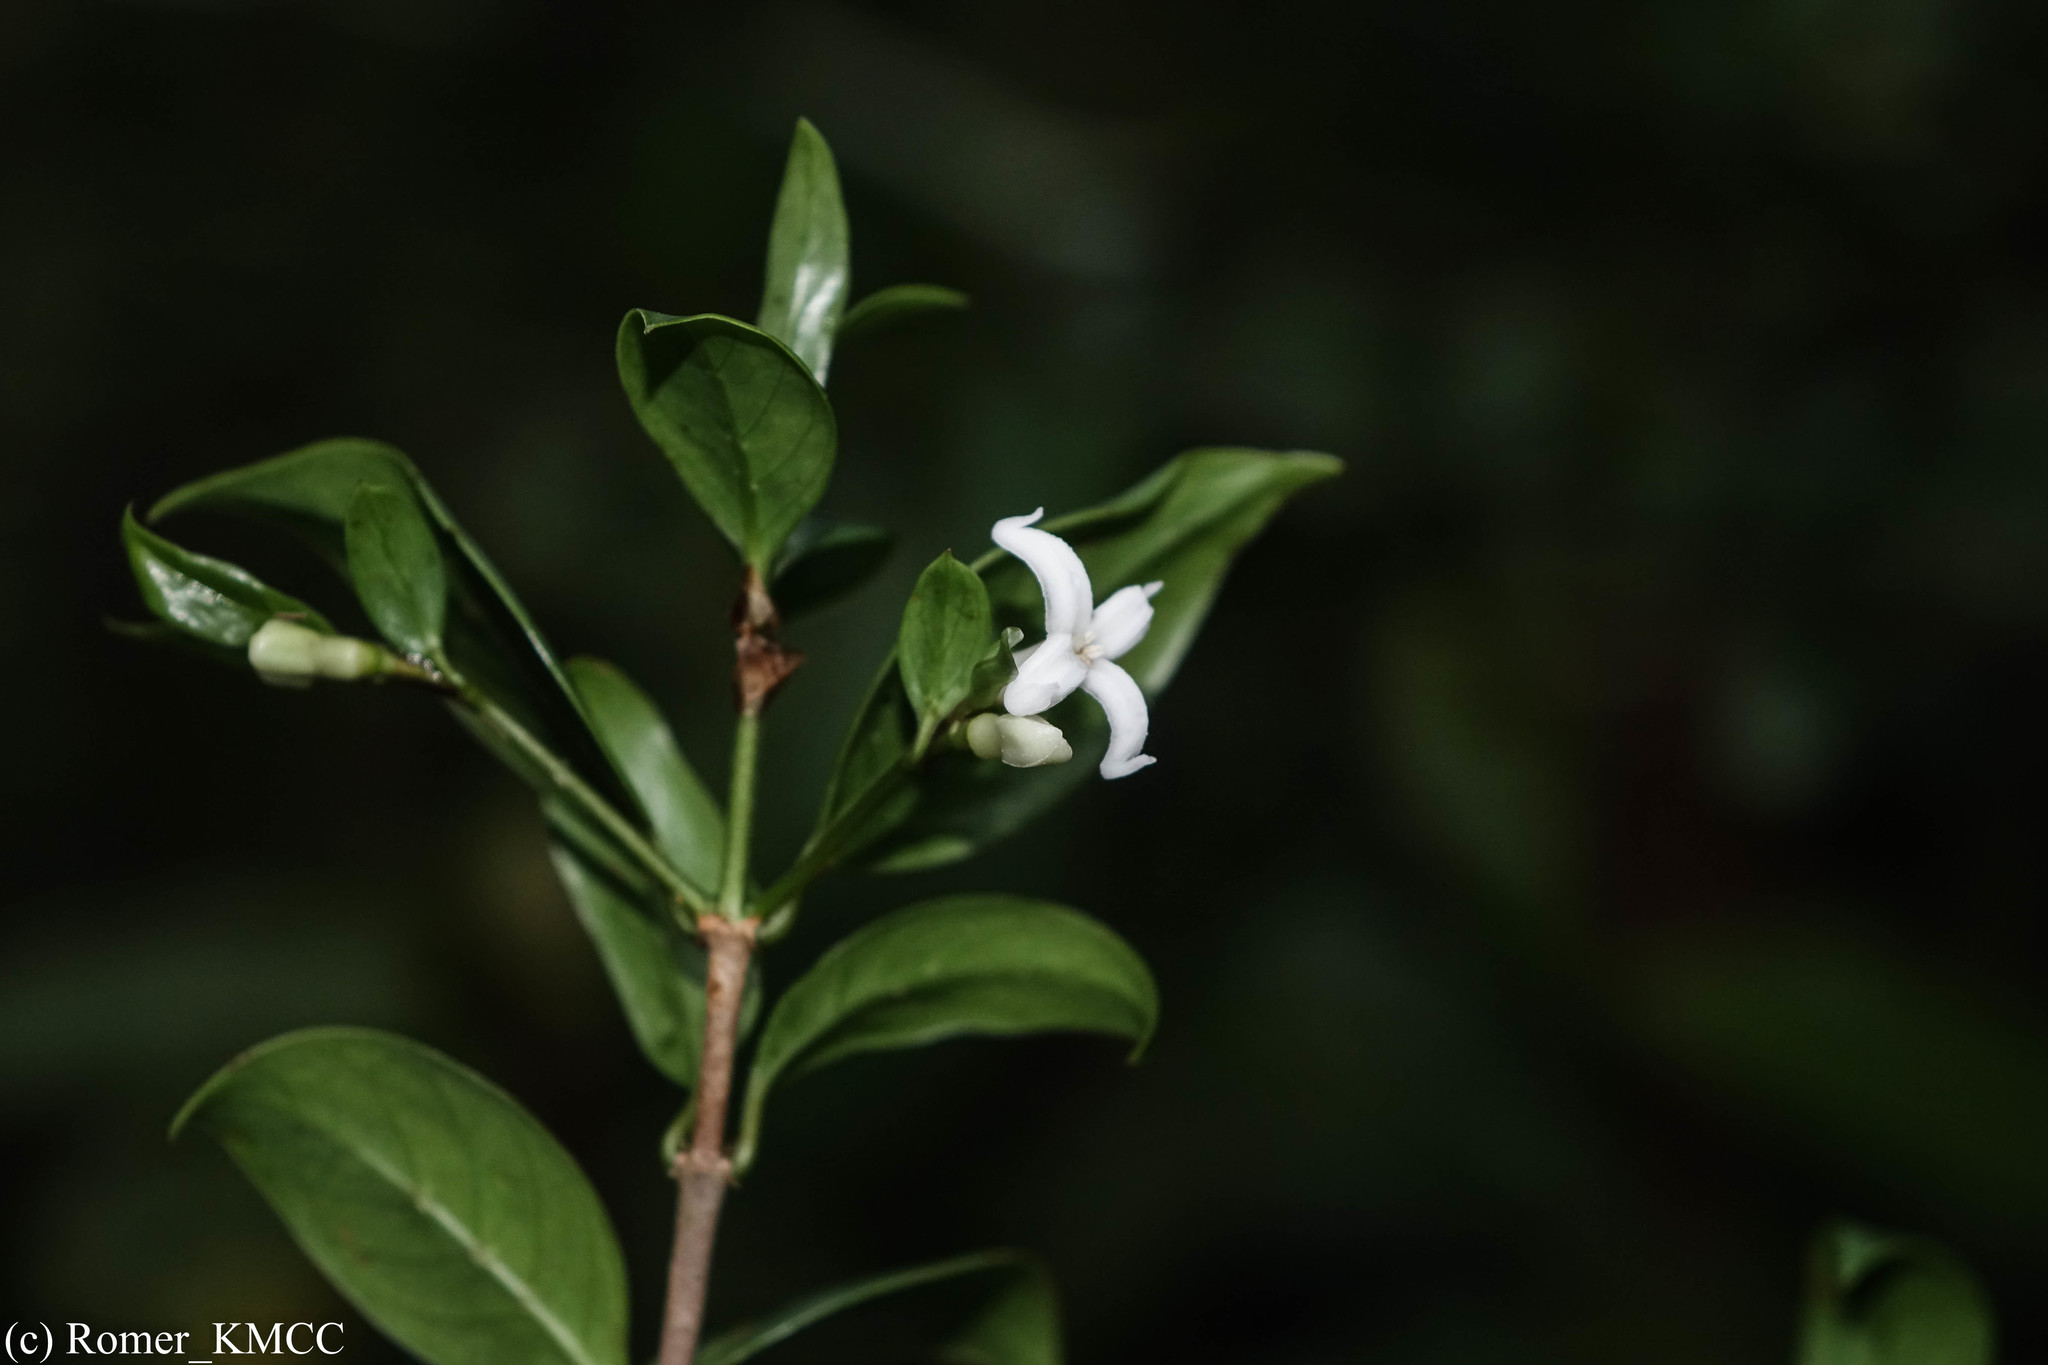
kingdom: Plantae
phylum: Tracheophyta
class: Magnoliopsida
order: Gentianales
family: Rubiaceae
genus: Gaertnera
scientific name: Gaertnera pauciflora
